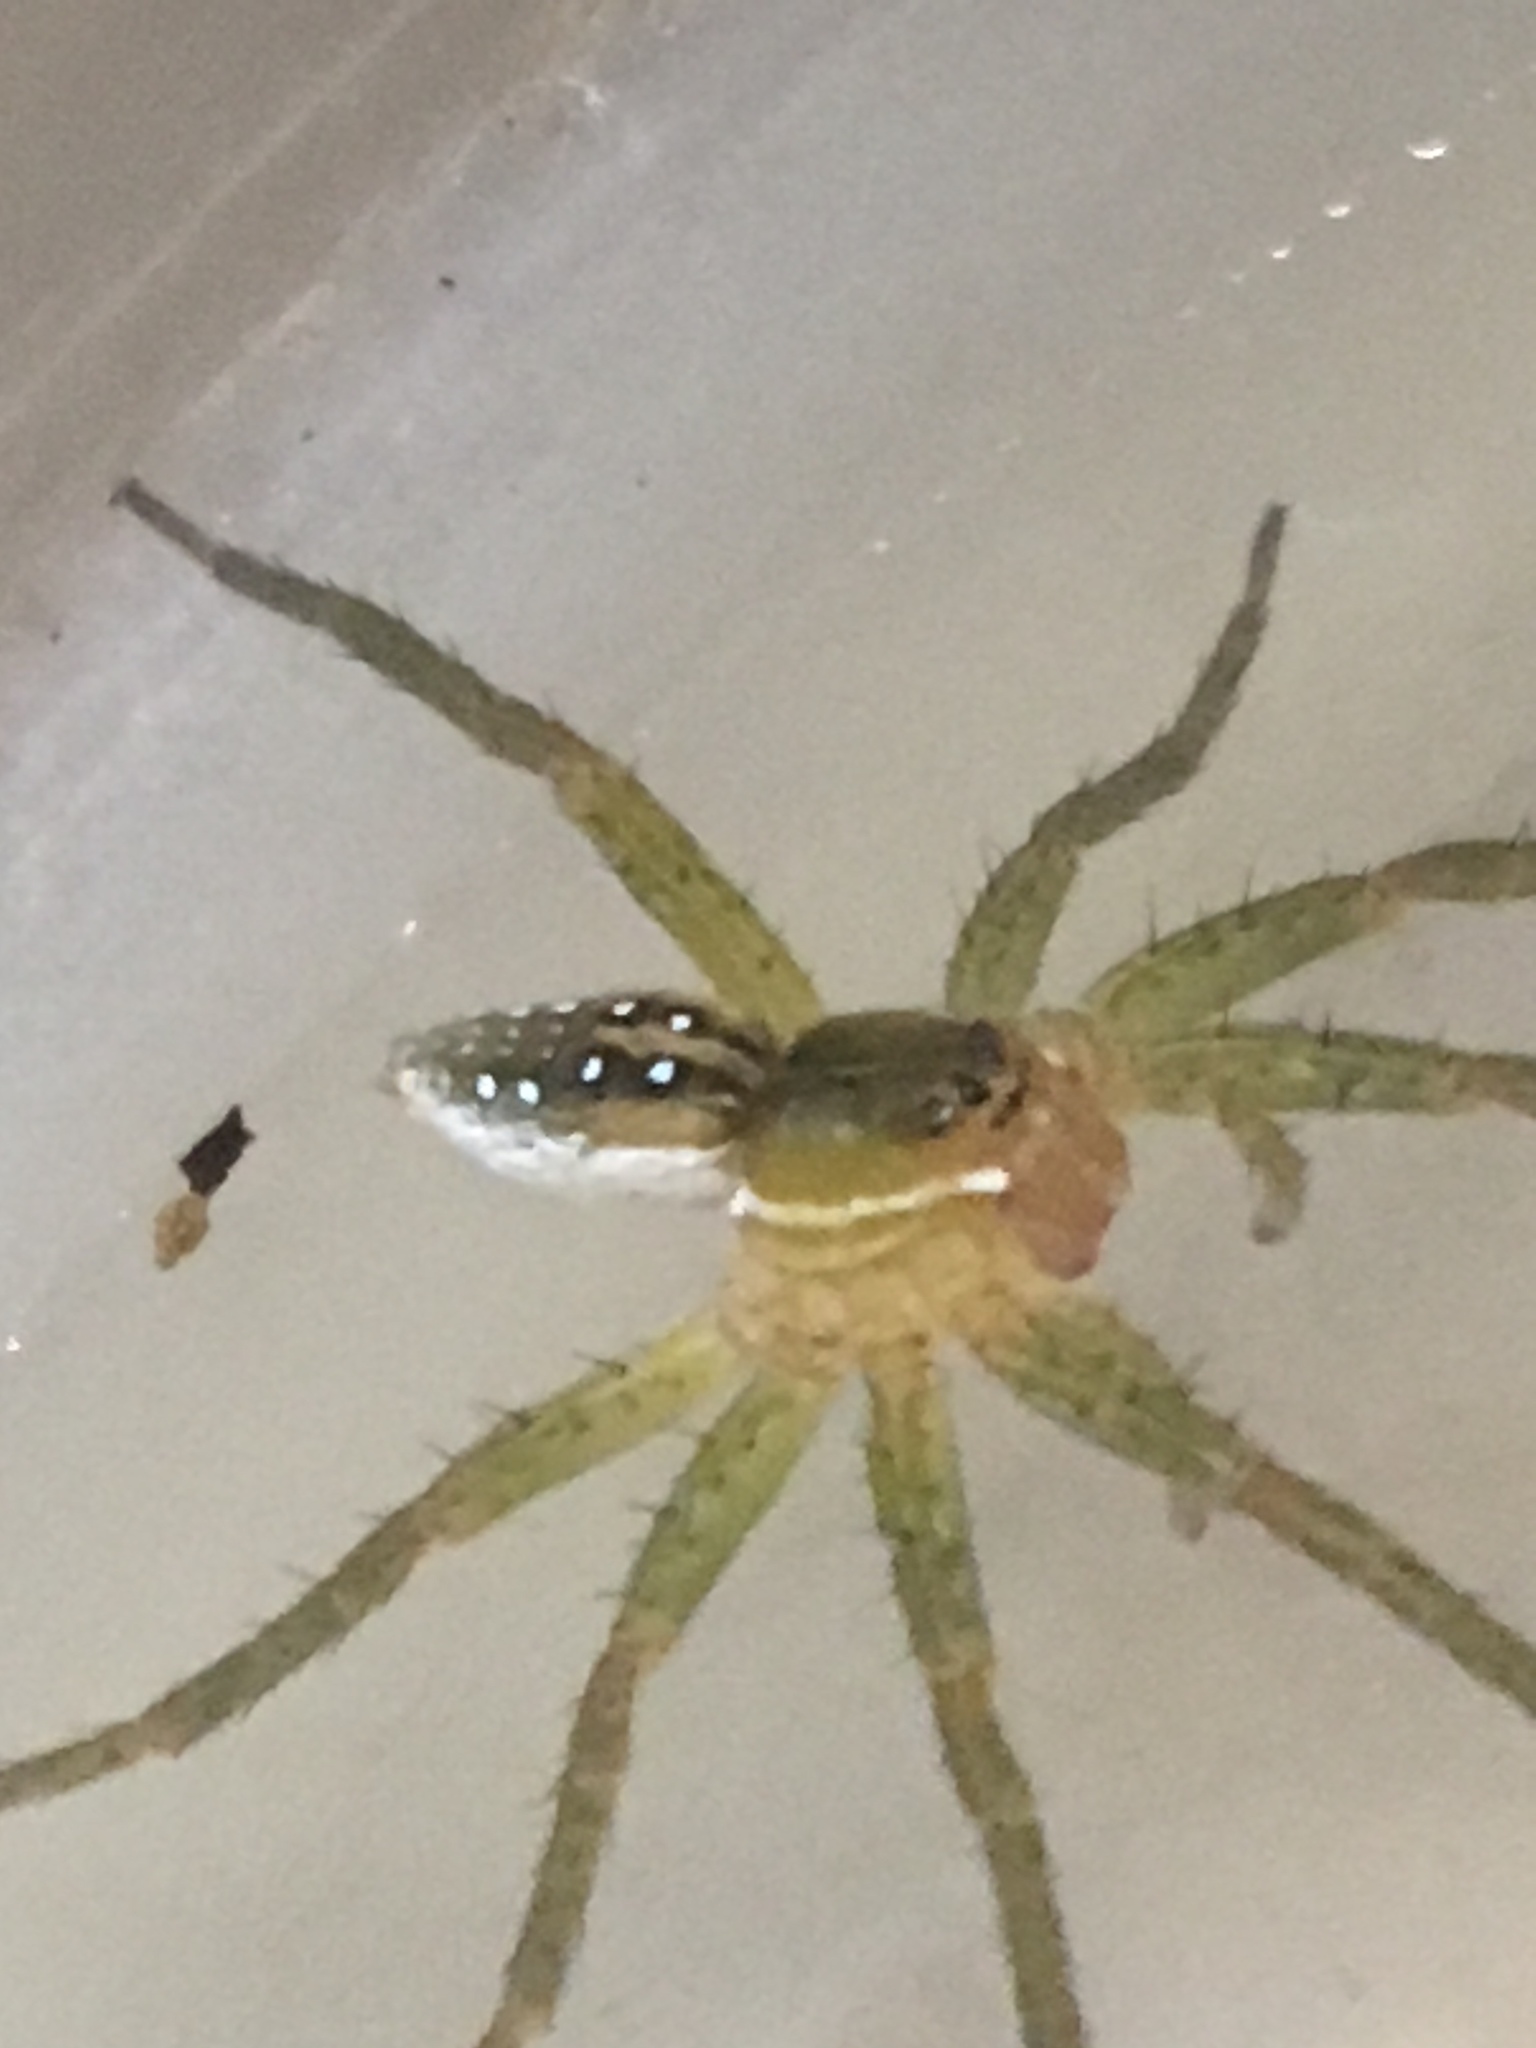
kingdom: Animalia
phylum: Arthropoda
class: Arachnida
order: Araneae
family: Pisauridae
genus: Dolomedes
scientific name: Dolomedes triton
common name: Six-spotted fishing spider
